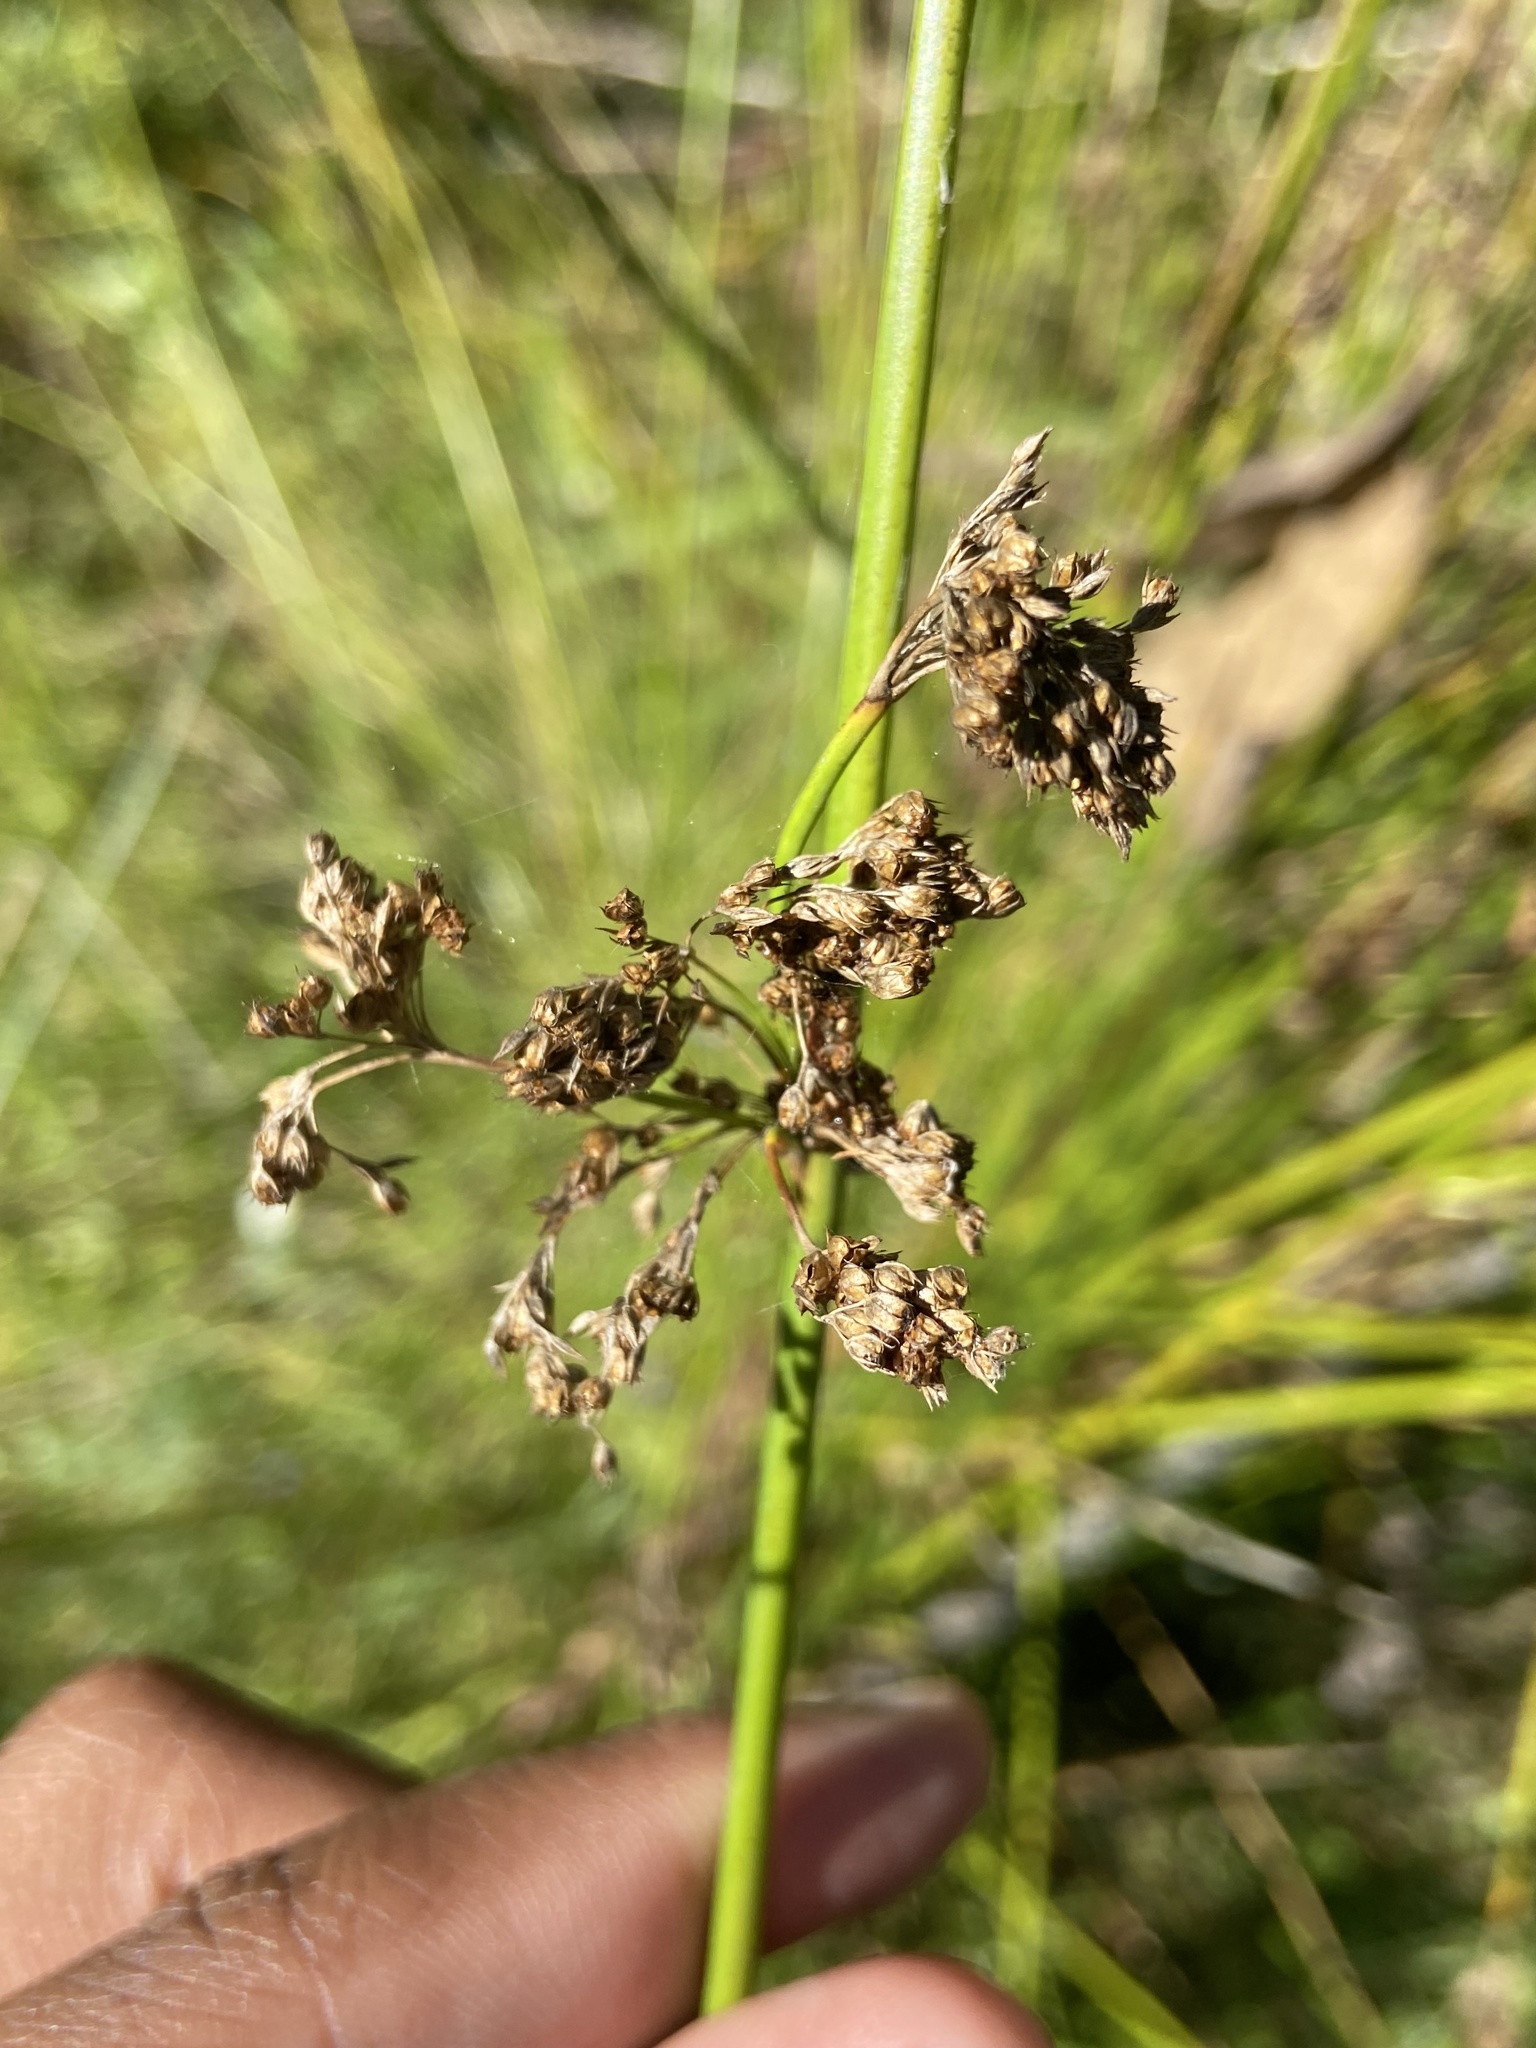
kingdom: Plantae
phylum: Tracheophyta
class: Liliopsida
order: Poales
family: Juncaceae
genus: Juncus
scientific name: Juncus effusus
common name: Soft rush
